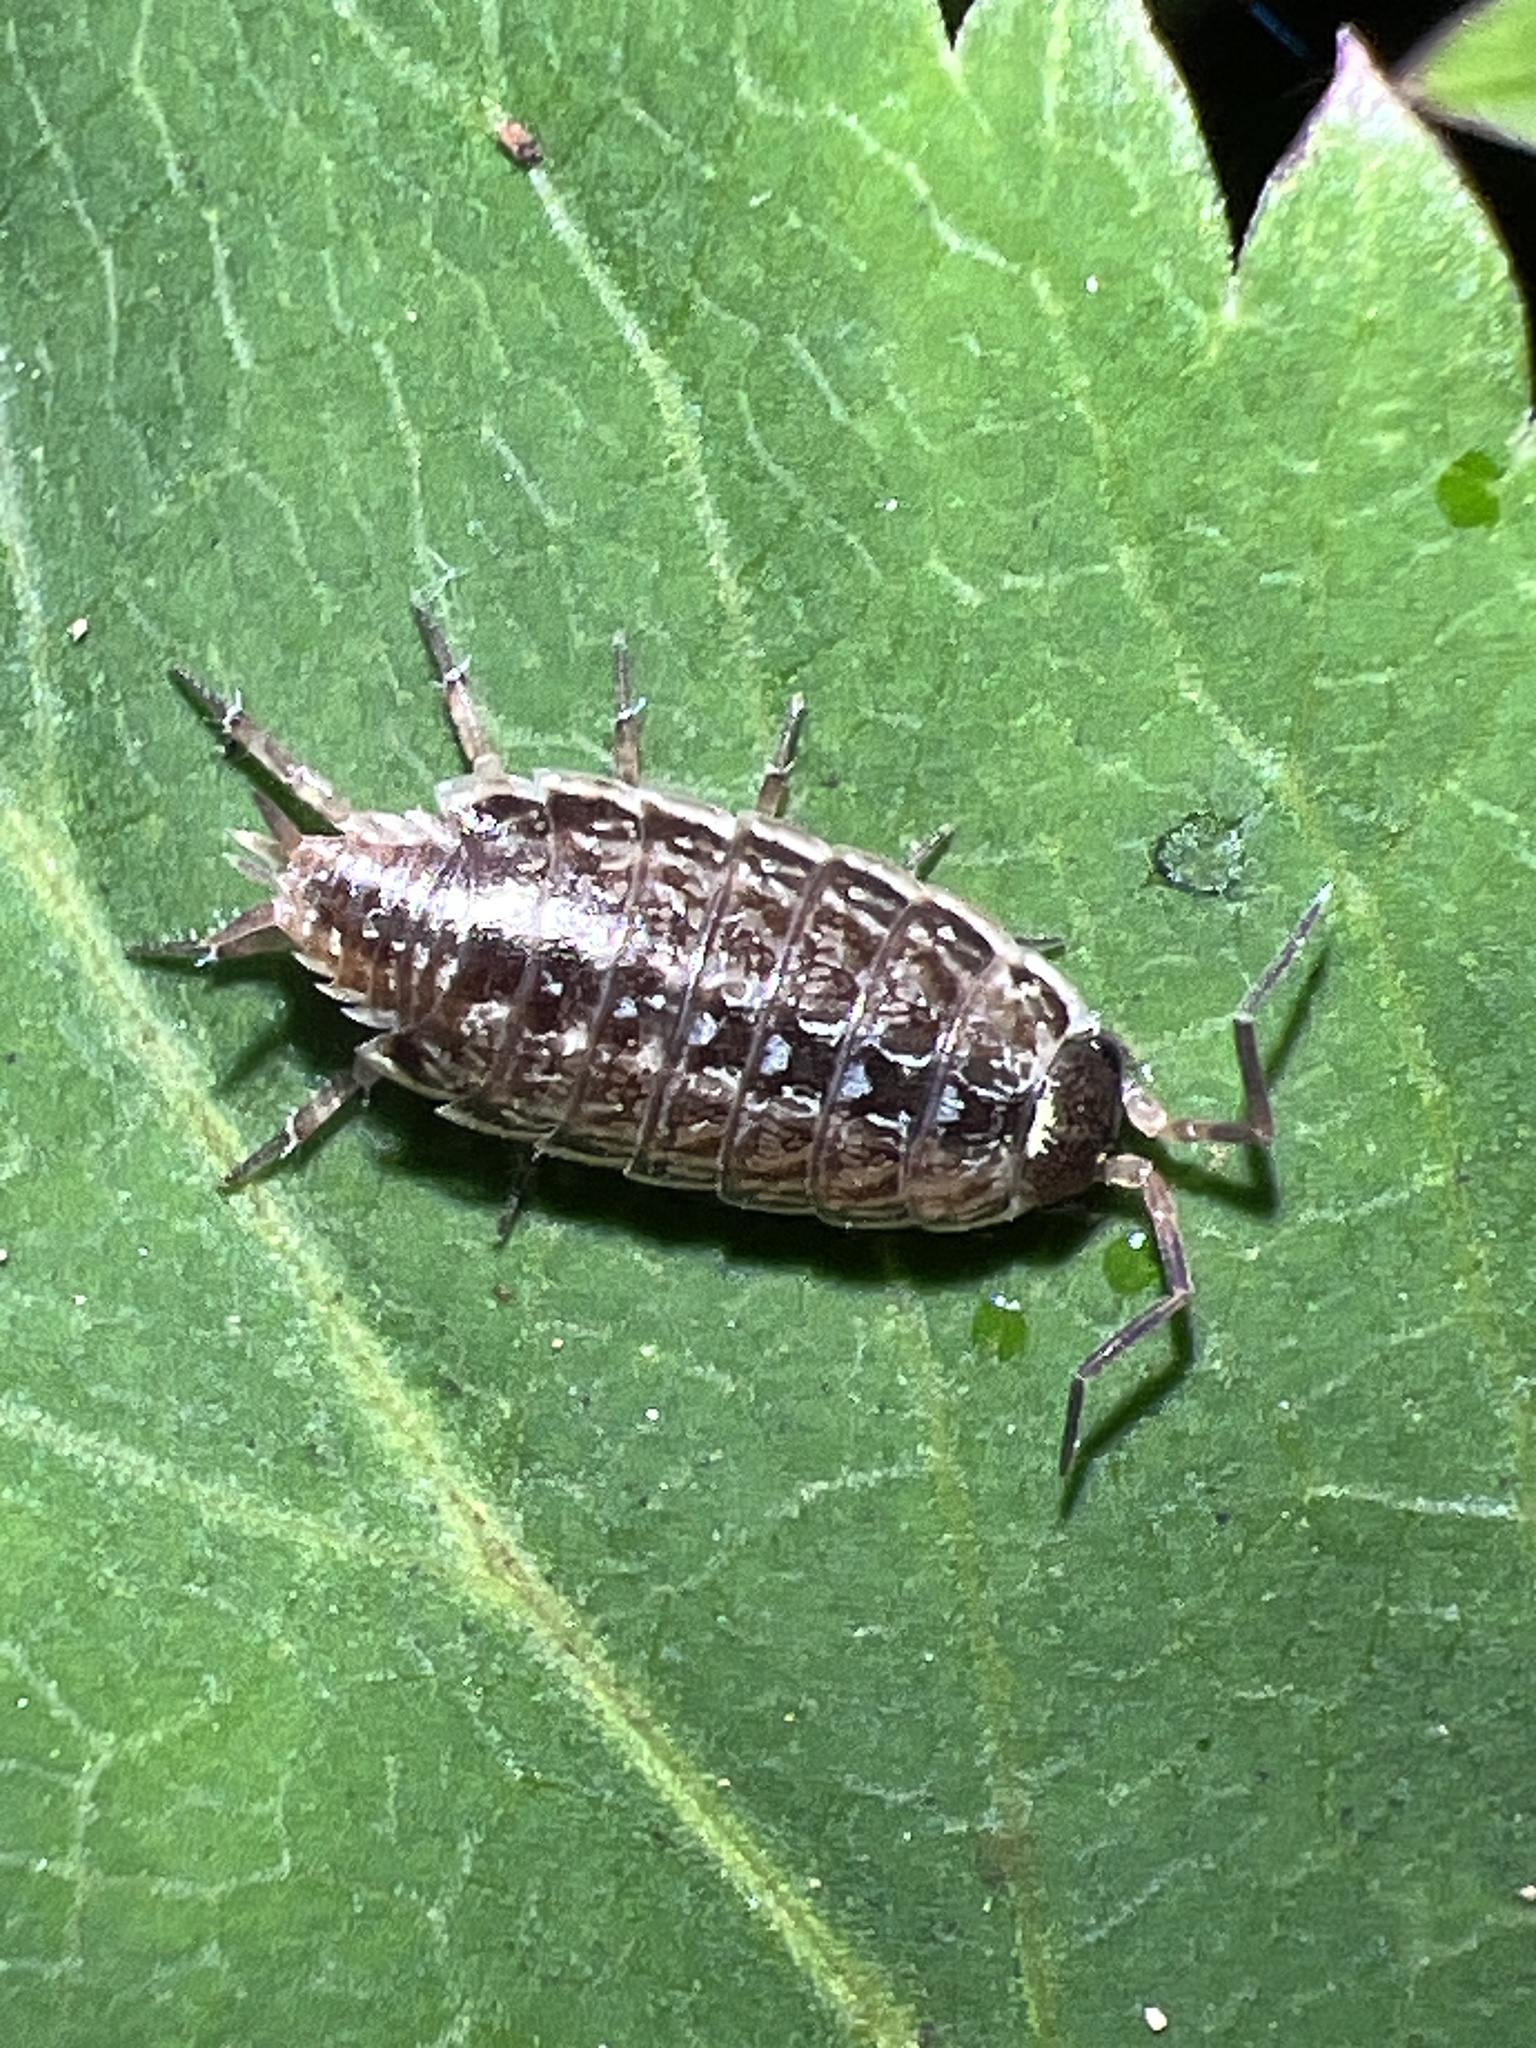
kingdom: Animalia
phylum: Arthropoda
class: Malacostraca
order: Isopoda
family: Philosciidae
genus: Philoscia
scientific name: Philoscia muscorum
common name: Common striped woodlouse
